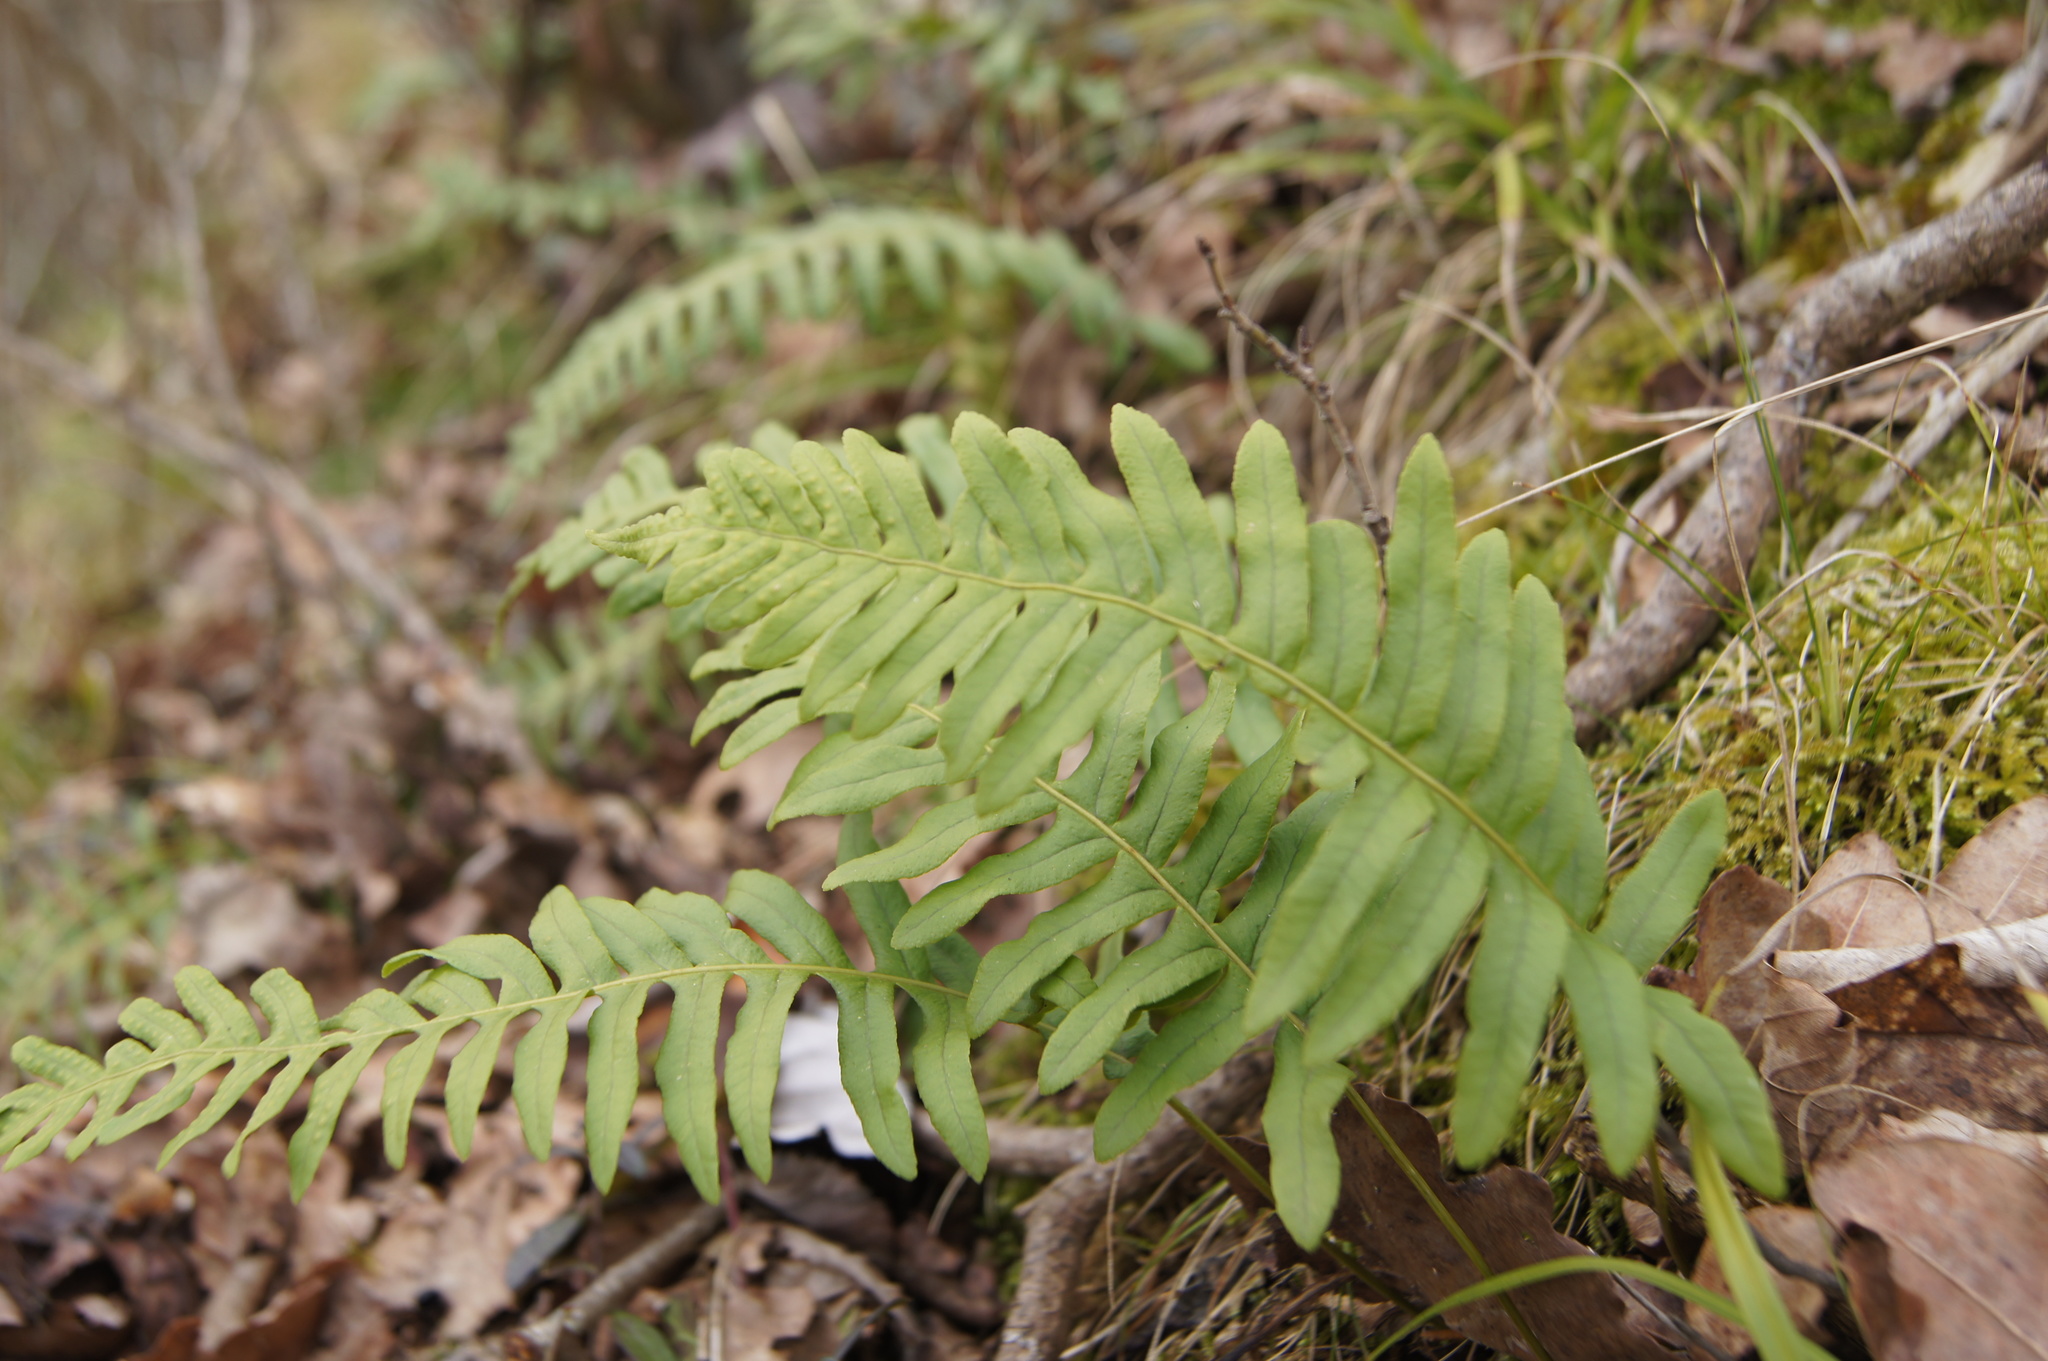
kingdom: Plantae
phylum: Tracheophyta
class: Polypodiopsida
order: Polypodiales
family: Polypodiaceae
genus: Polypodium
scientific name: Polypodium vulgare
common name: Common polypody
